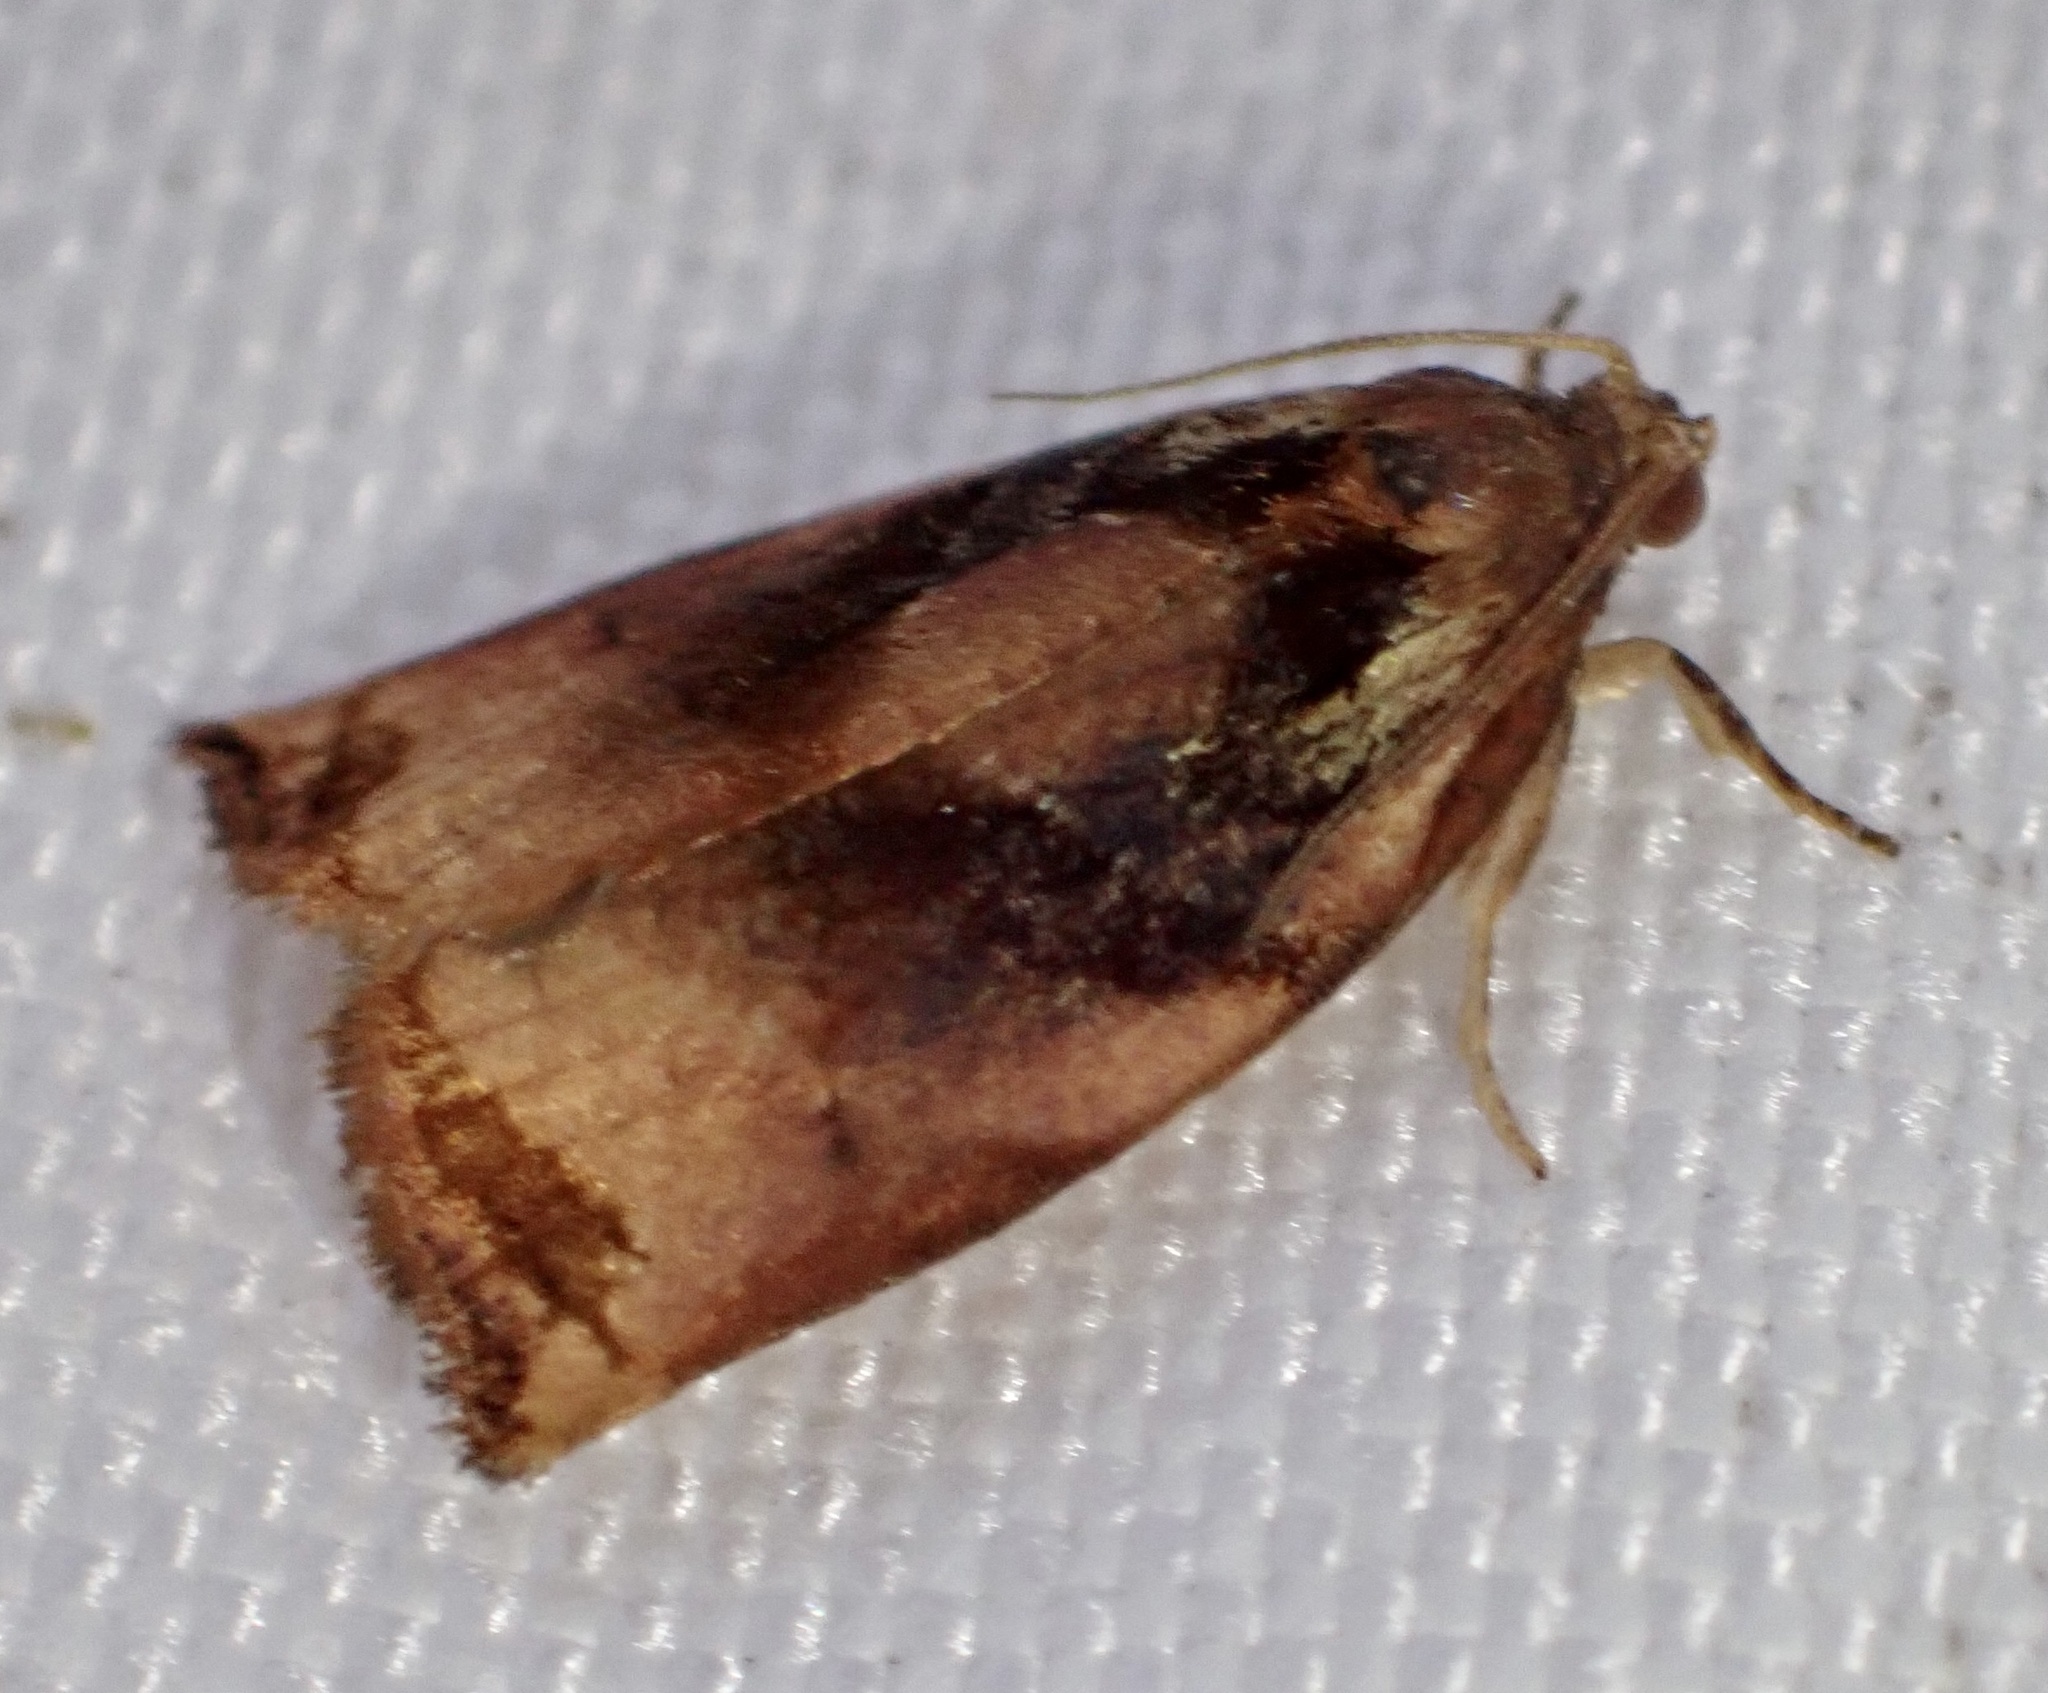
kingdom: Animalia
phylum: Arthropoda
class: Insecta
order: Lepidoptera
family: Tortricidae
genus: Archips
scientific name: Archips podana
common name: Large fruit-tree tortrix
